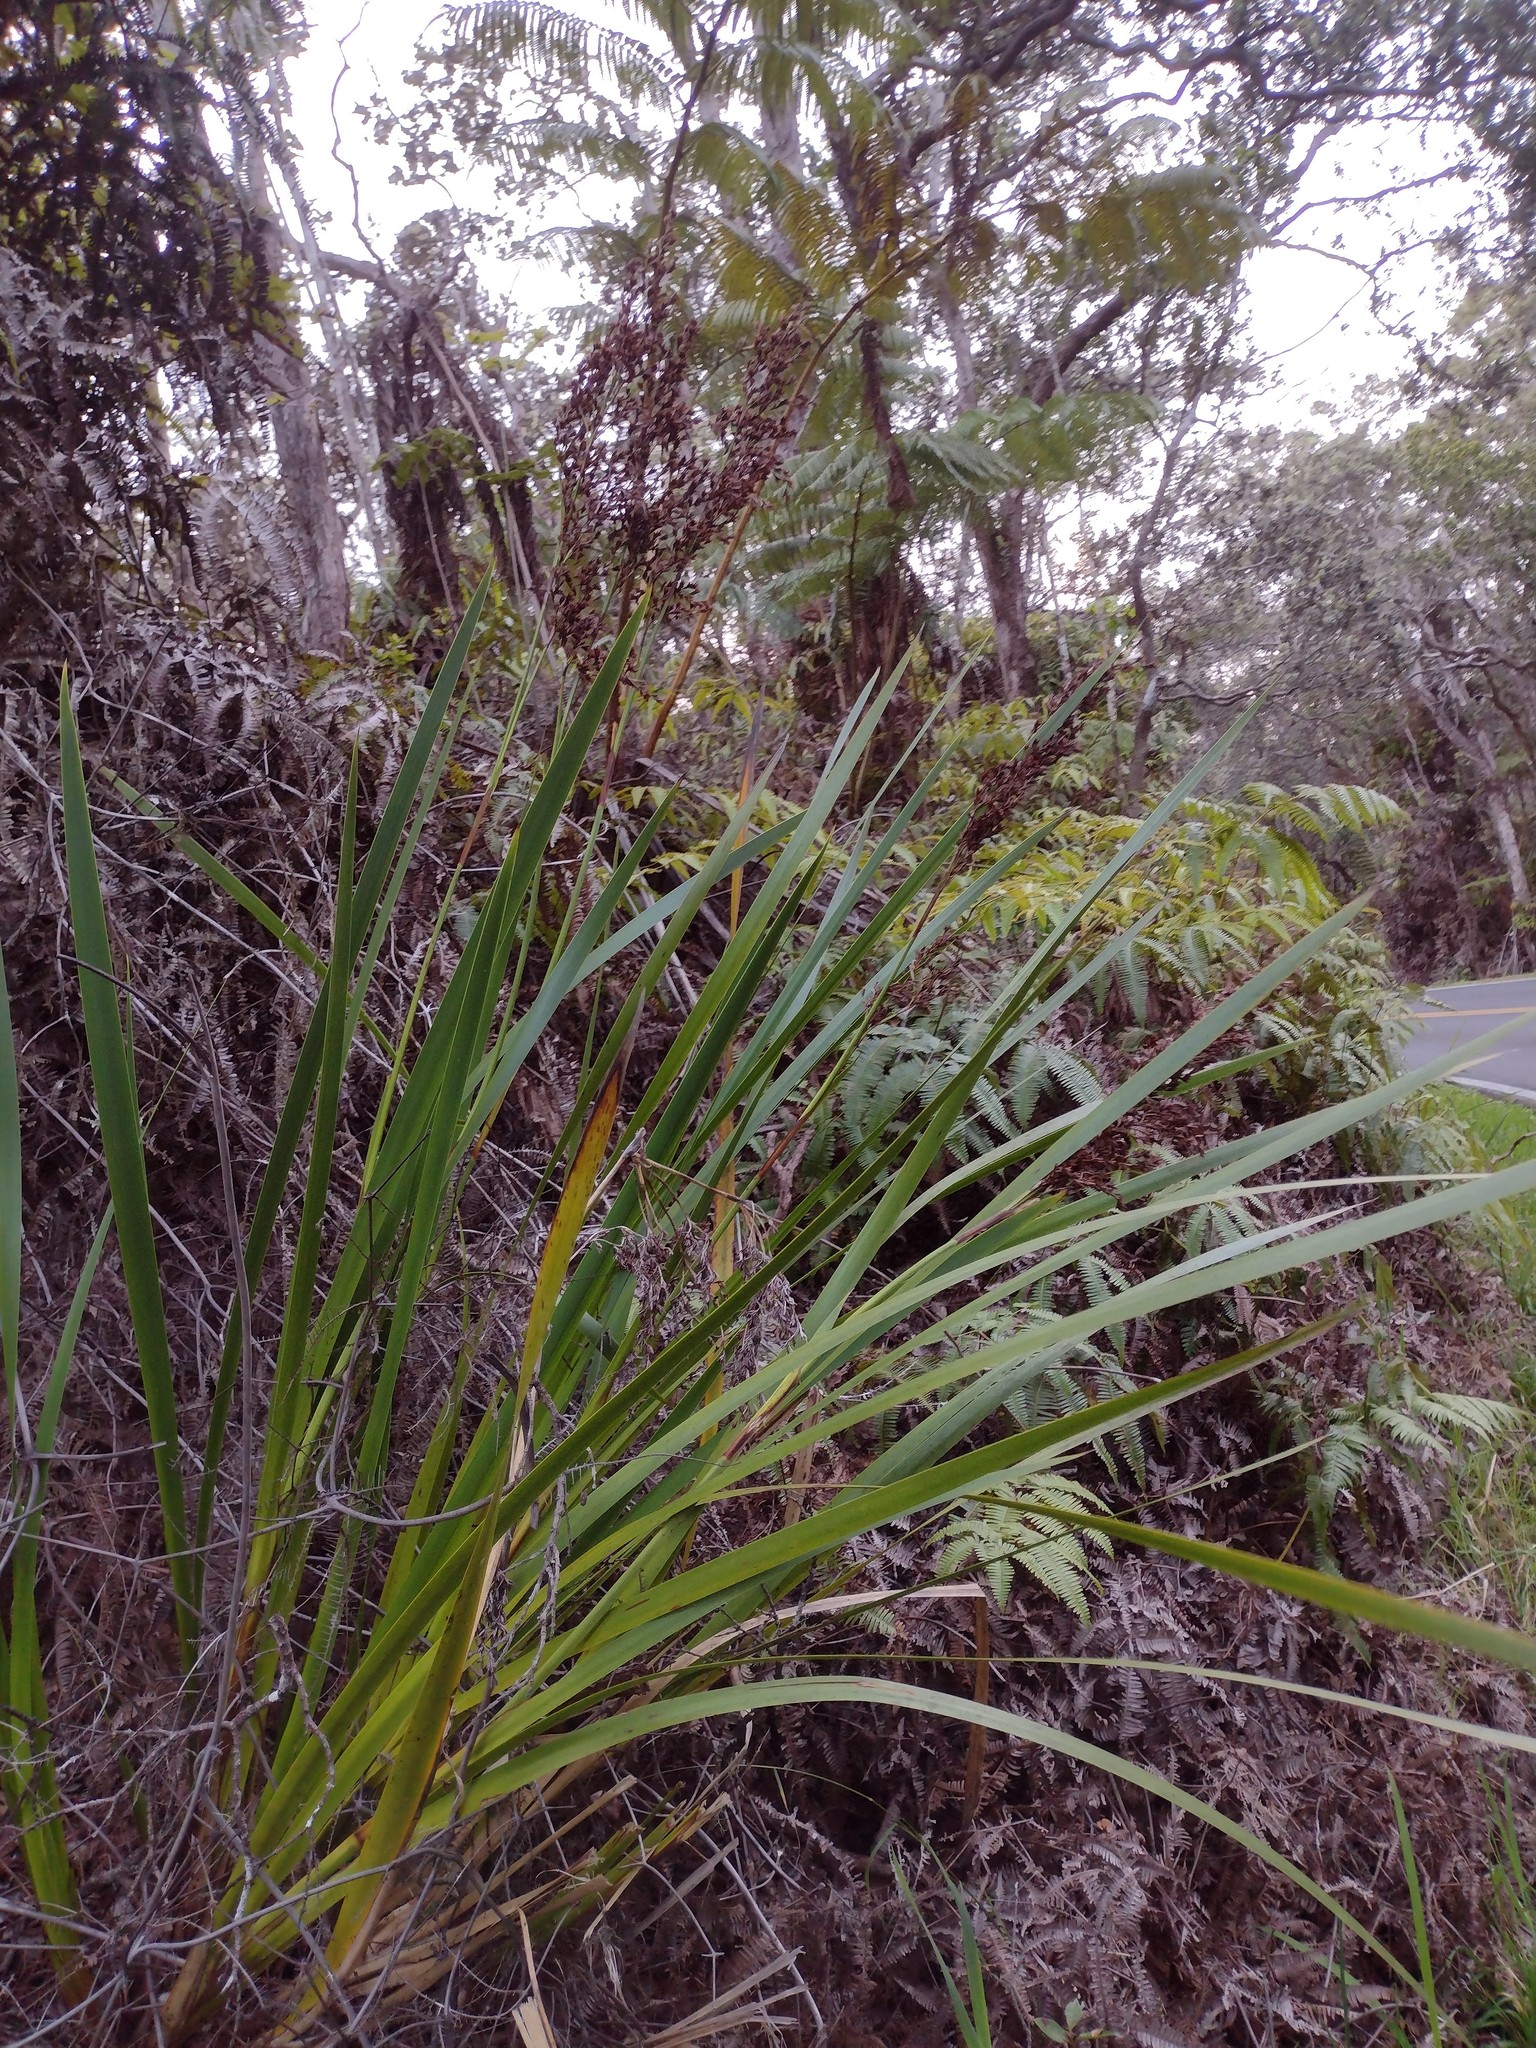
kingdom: Plantae
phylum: Tracheophyta
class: Liliopsida
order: Poales
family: Cyperaceae
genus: Machaerina
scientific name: Machaerina angustifolia
